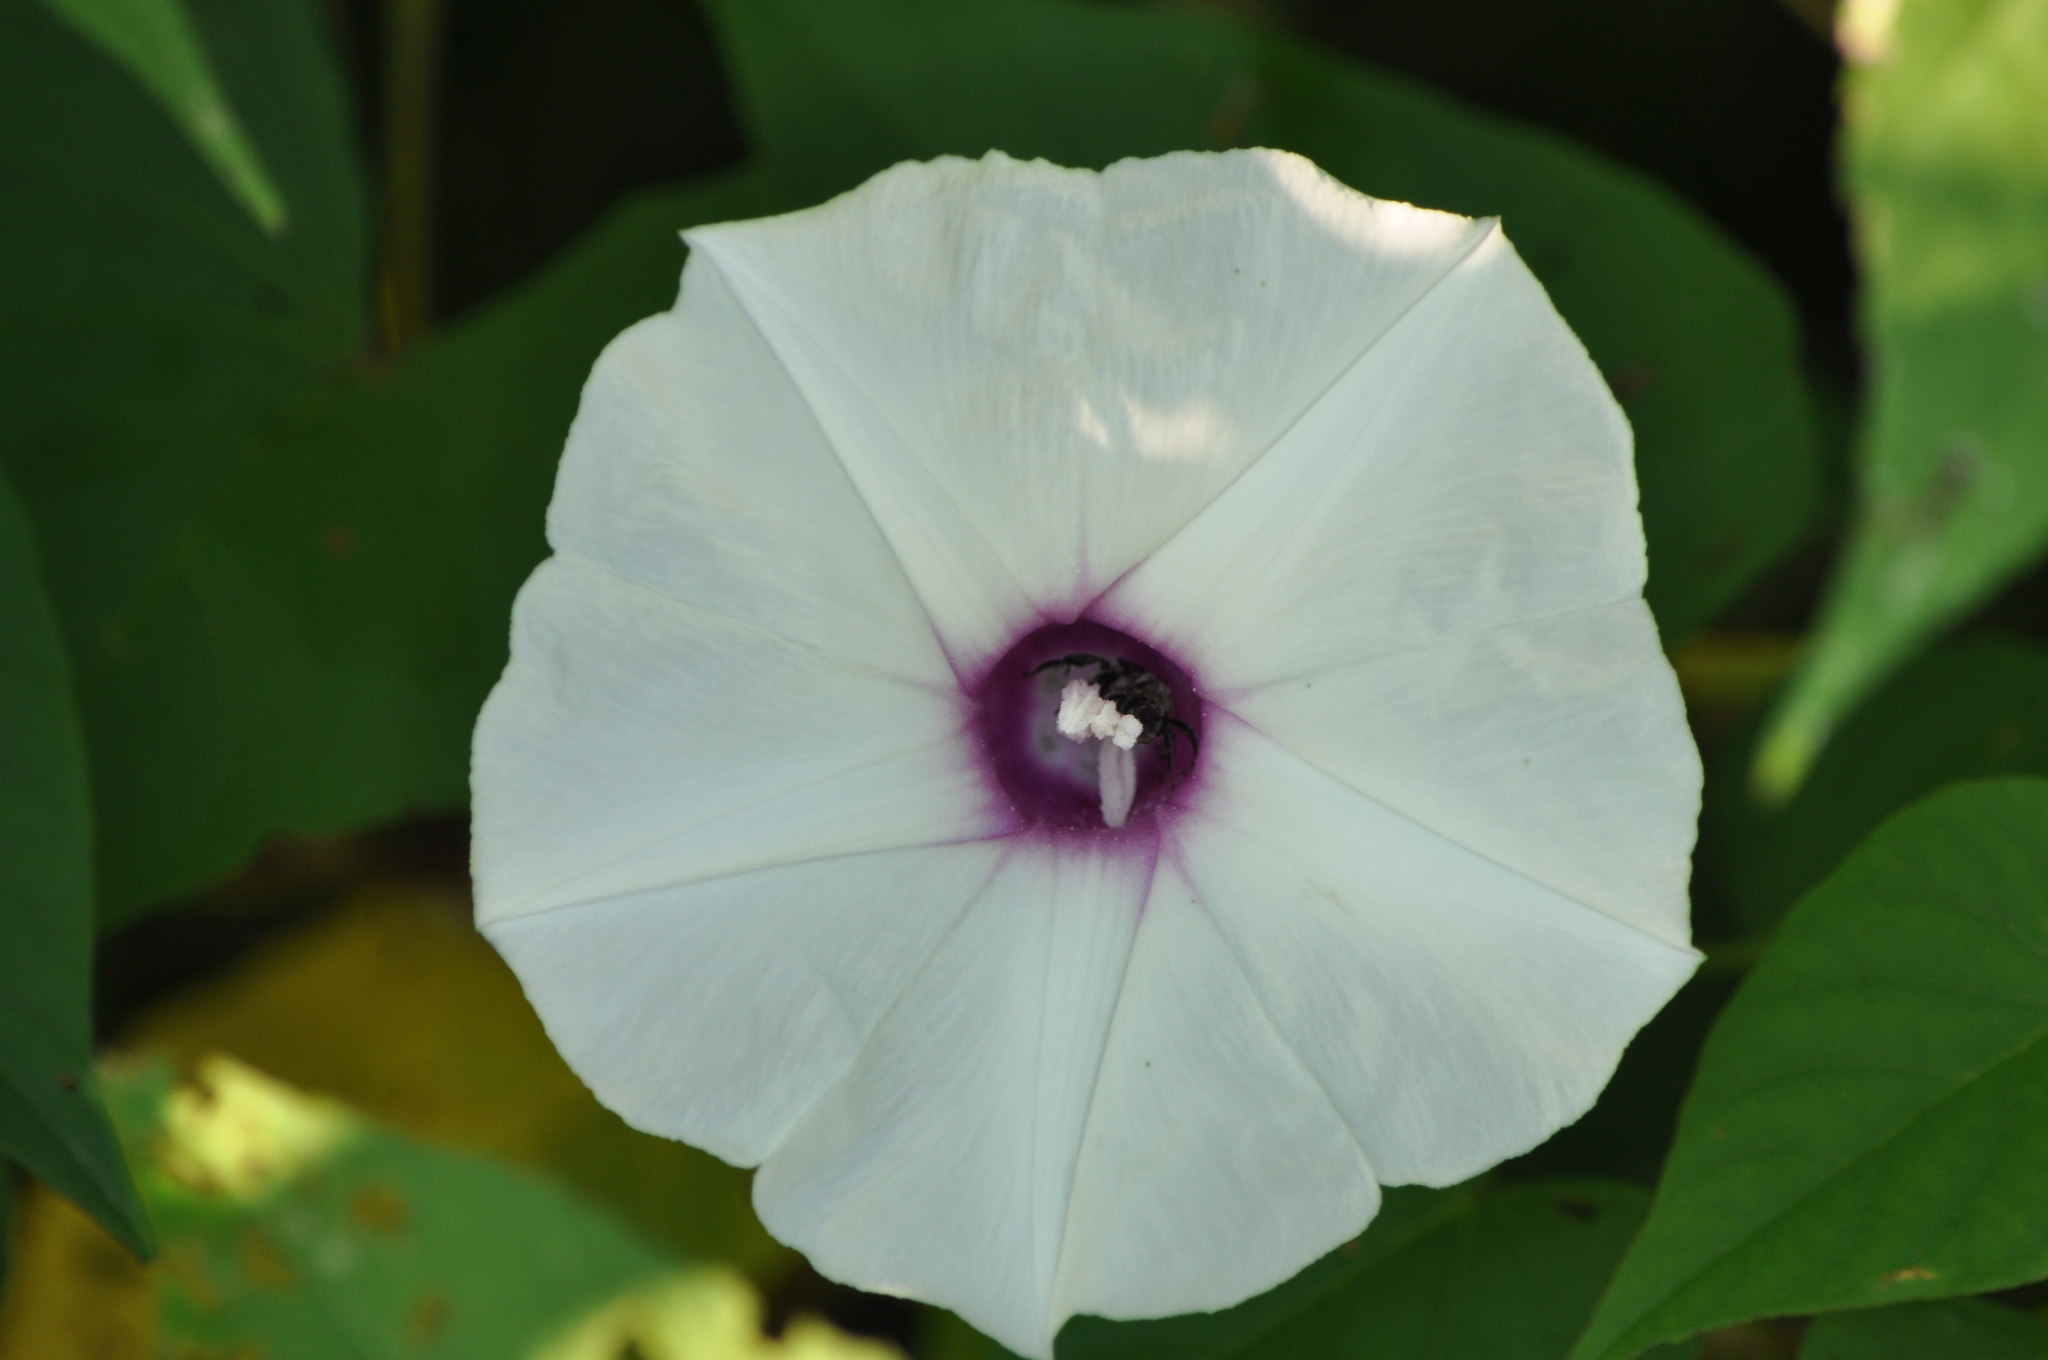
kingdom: Plantae
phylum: Tracheophyta
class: Magnoliopsida
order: Solanales
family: Convolvulaceae
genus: Ipomoea
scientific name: Ipomoea pandurata
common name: Man-of-the-earth
